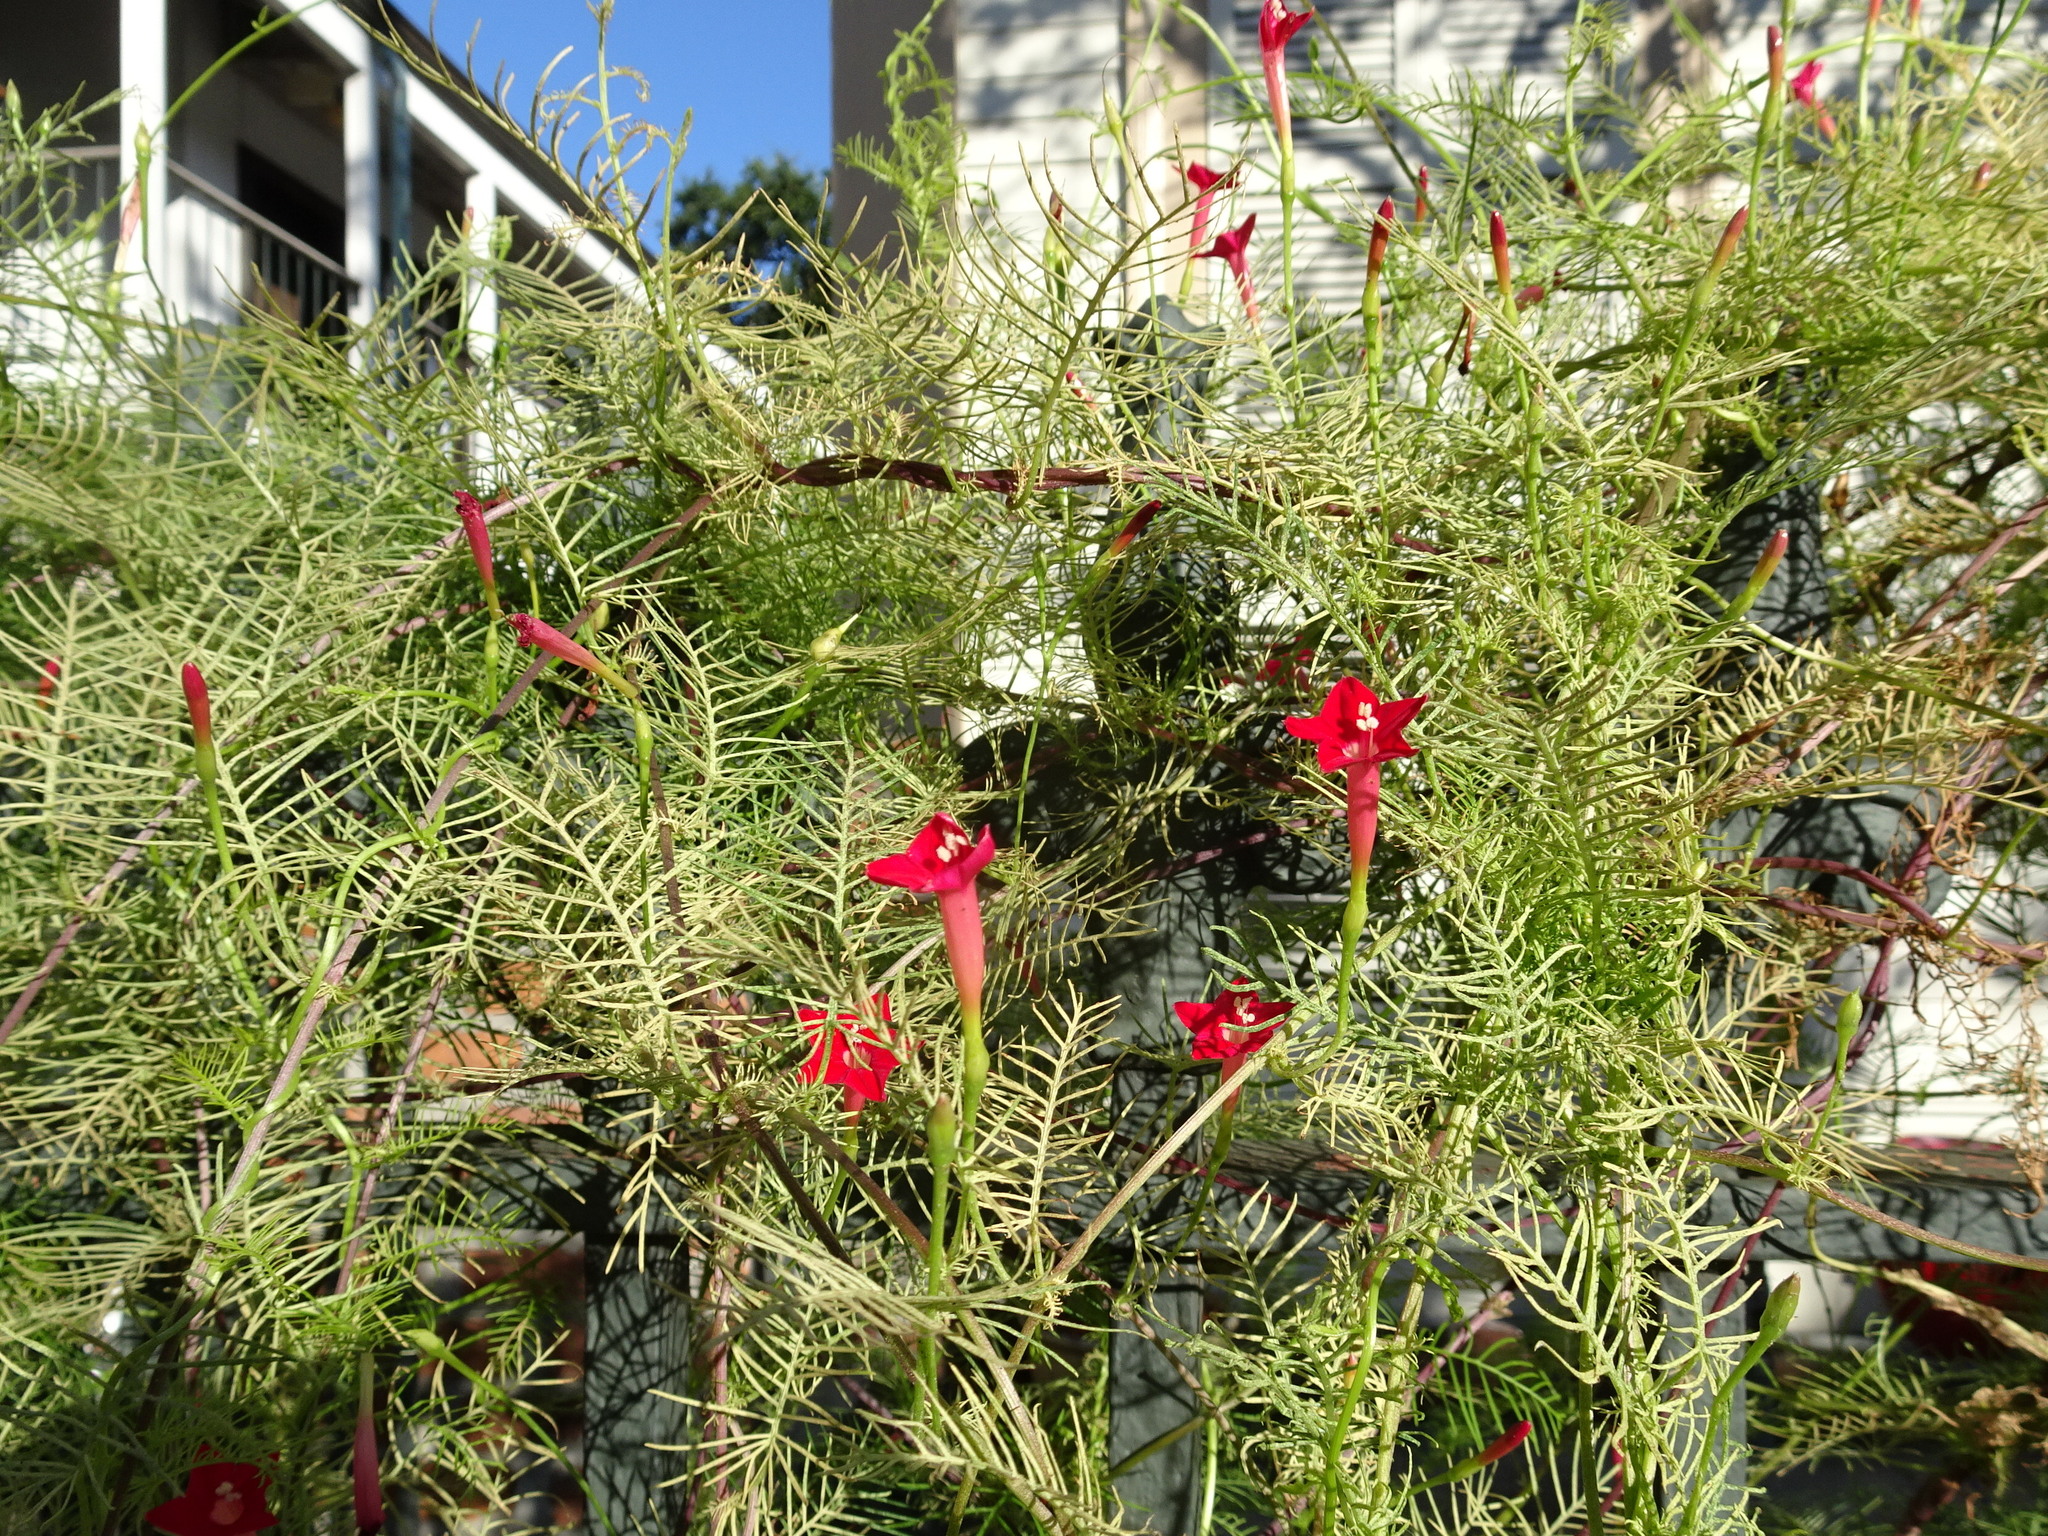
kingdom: Plantae
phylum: Tracheophyta
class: Magnoliopsida
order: Solanales
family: Convolvulaceae
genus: Ipomoea
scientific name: Ipomoea quamoclit
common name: Cypress vine
